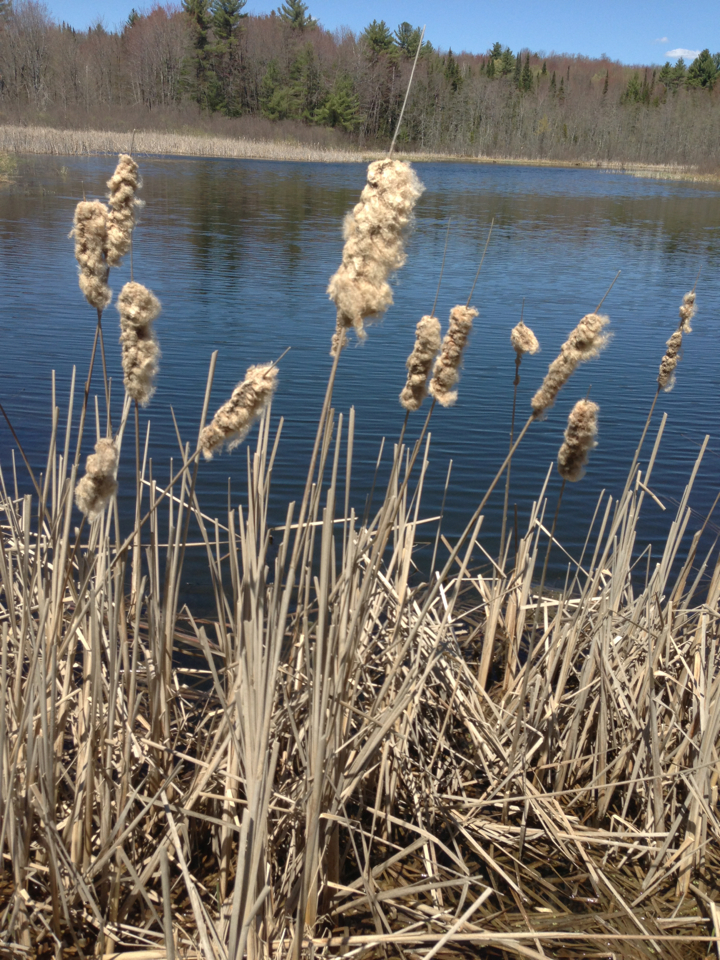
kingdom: Plantae
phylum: Tracheophyta
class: Liliopsida
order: Poales
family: Typhaceae
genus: Typha
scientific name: Typha latifolia
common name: Broadleaf cattail
